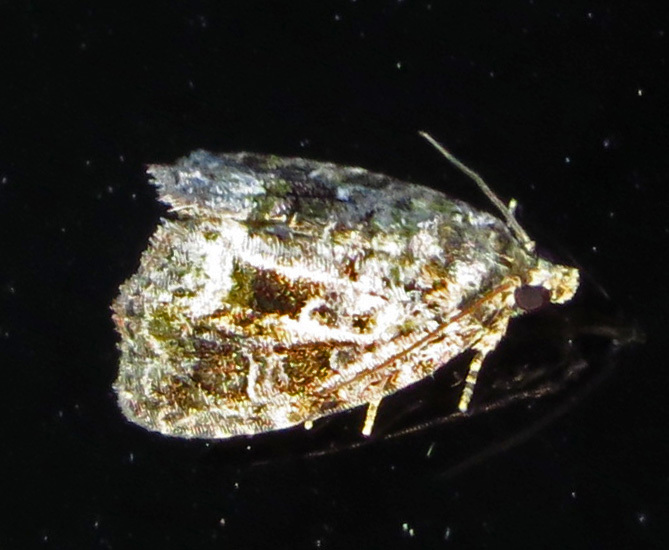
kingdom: Animalia
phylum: Arthropoda
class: Insecta
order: Lepidoptera
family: Noctuidae
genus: Lithacodia
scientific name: Lithacodia musta
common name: Small mossy glyph
